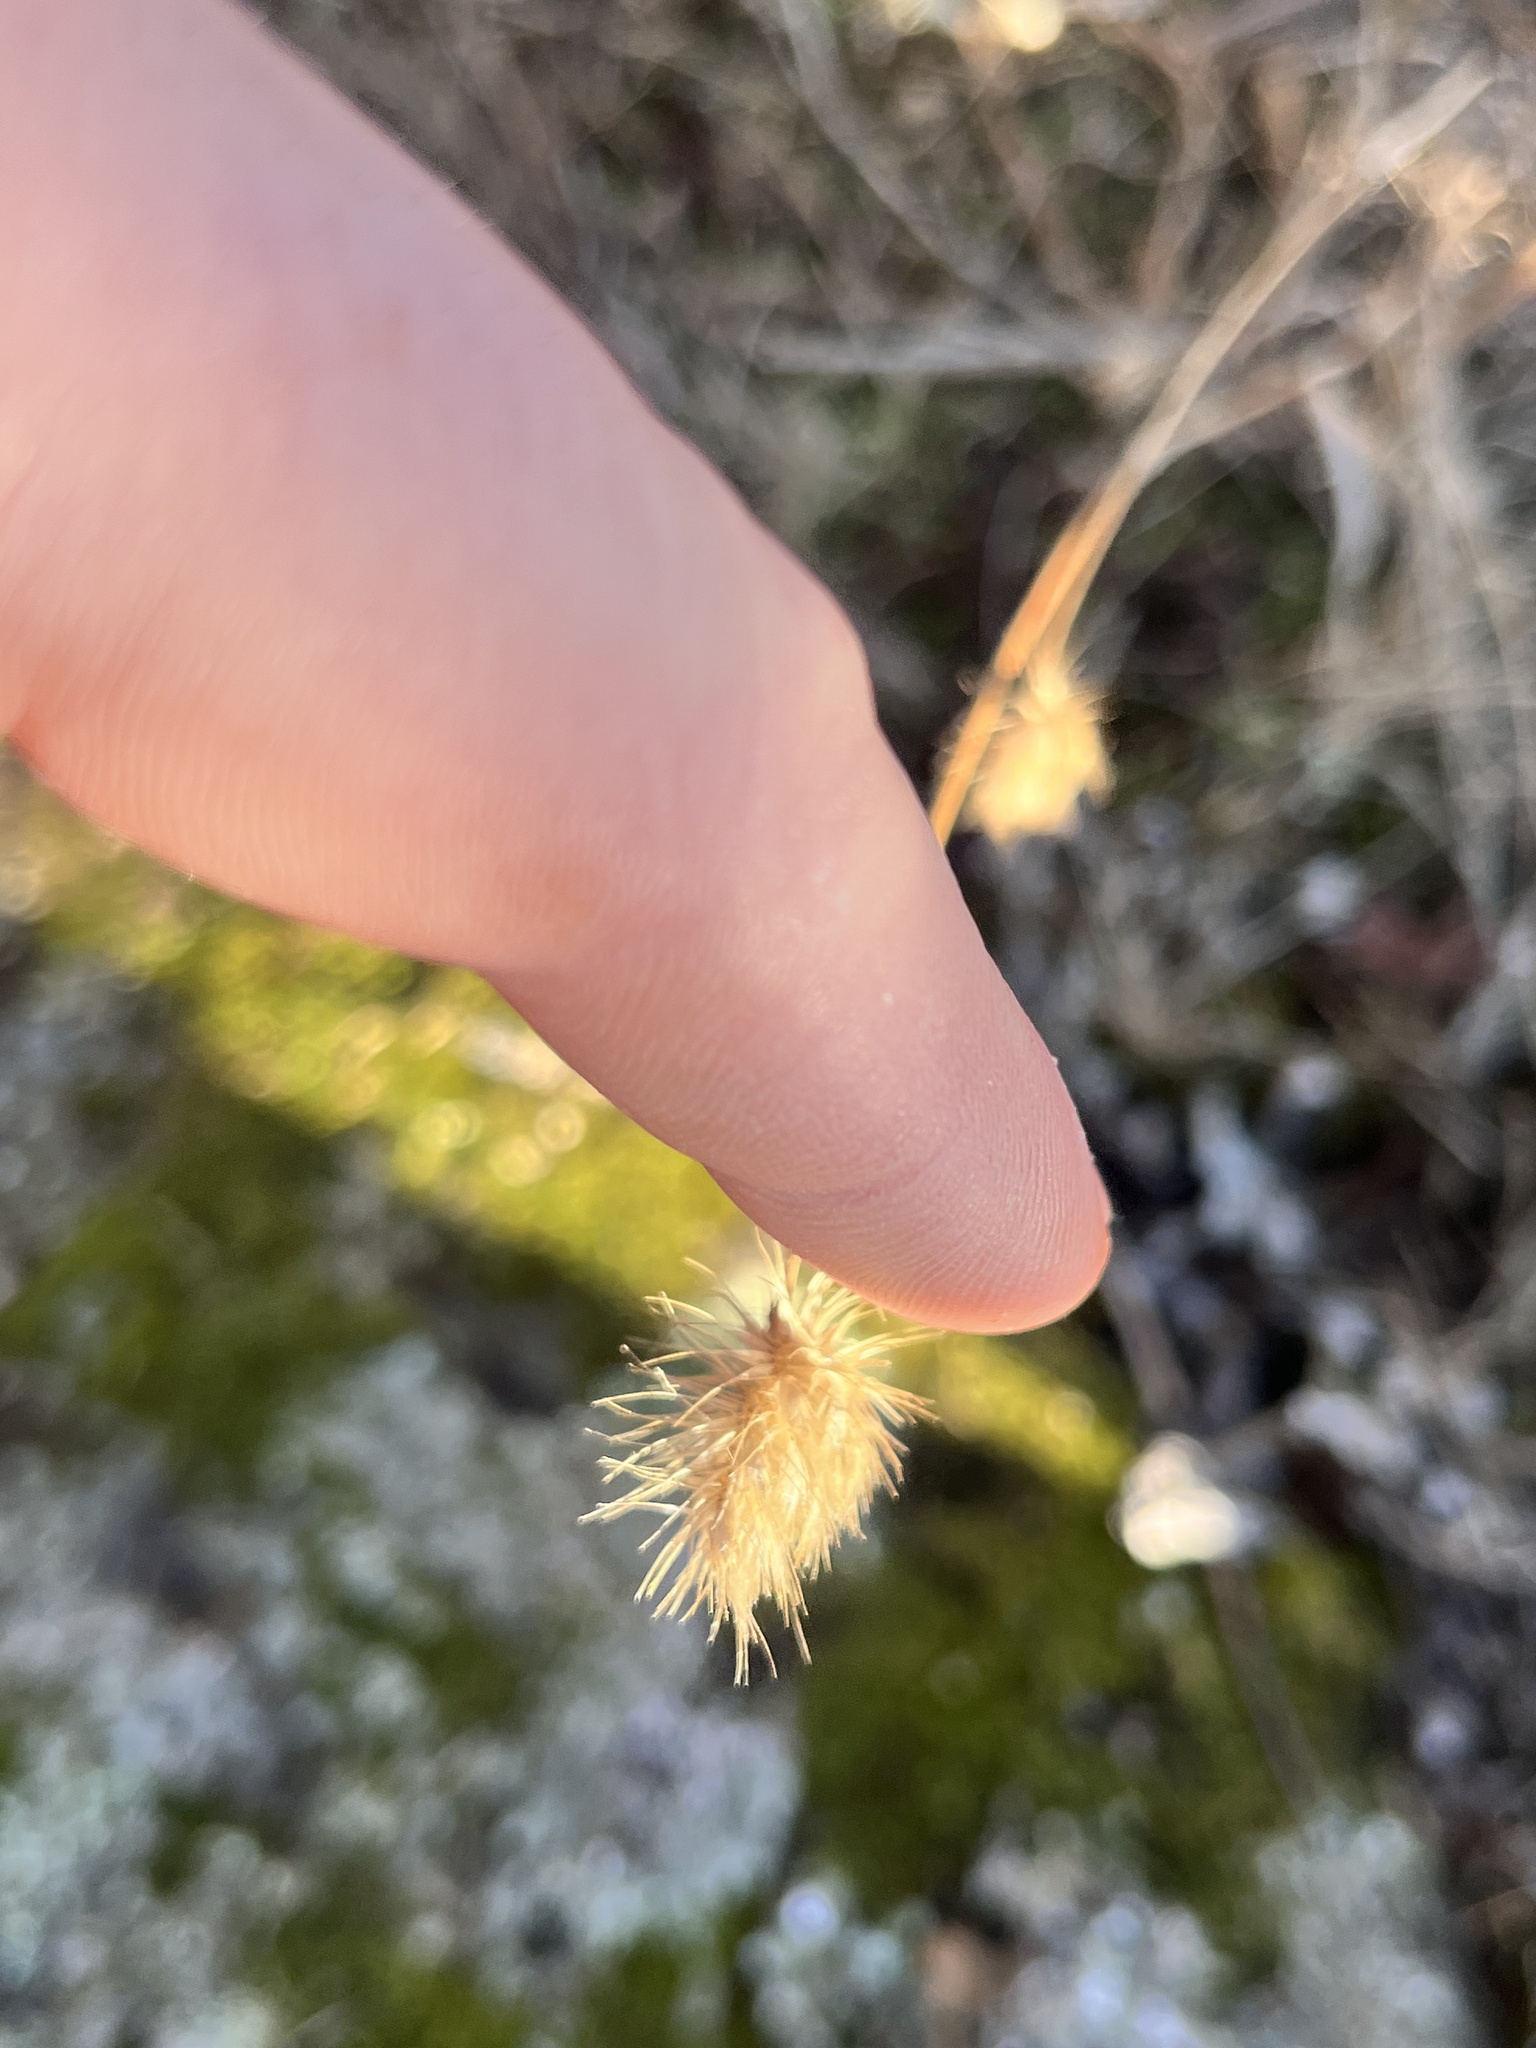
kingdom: Plantae
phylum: Tracheophyta
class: Liliopsida
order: Poales
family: Poaceae
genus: Cynosurus
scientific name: Cynosurus echinatus
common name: Rough dog's-tail
